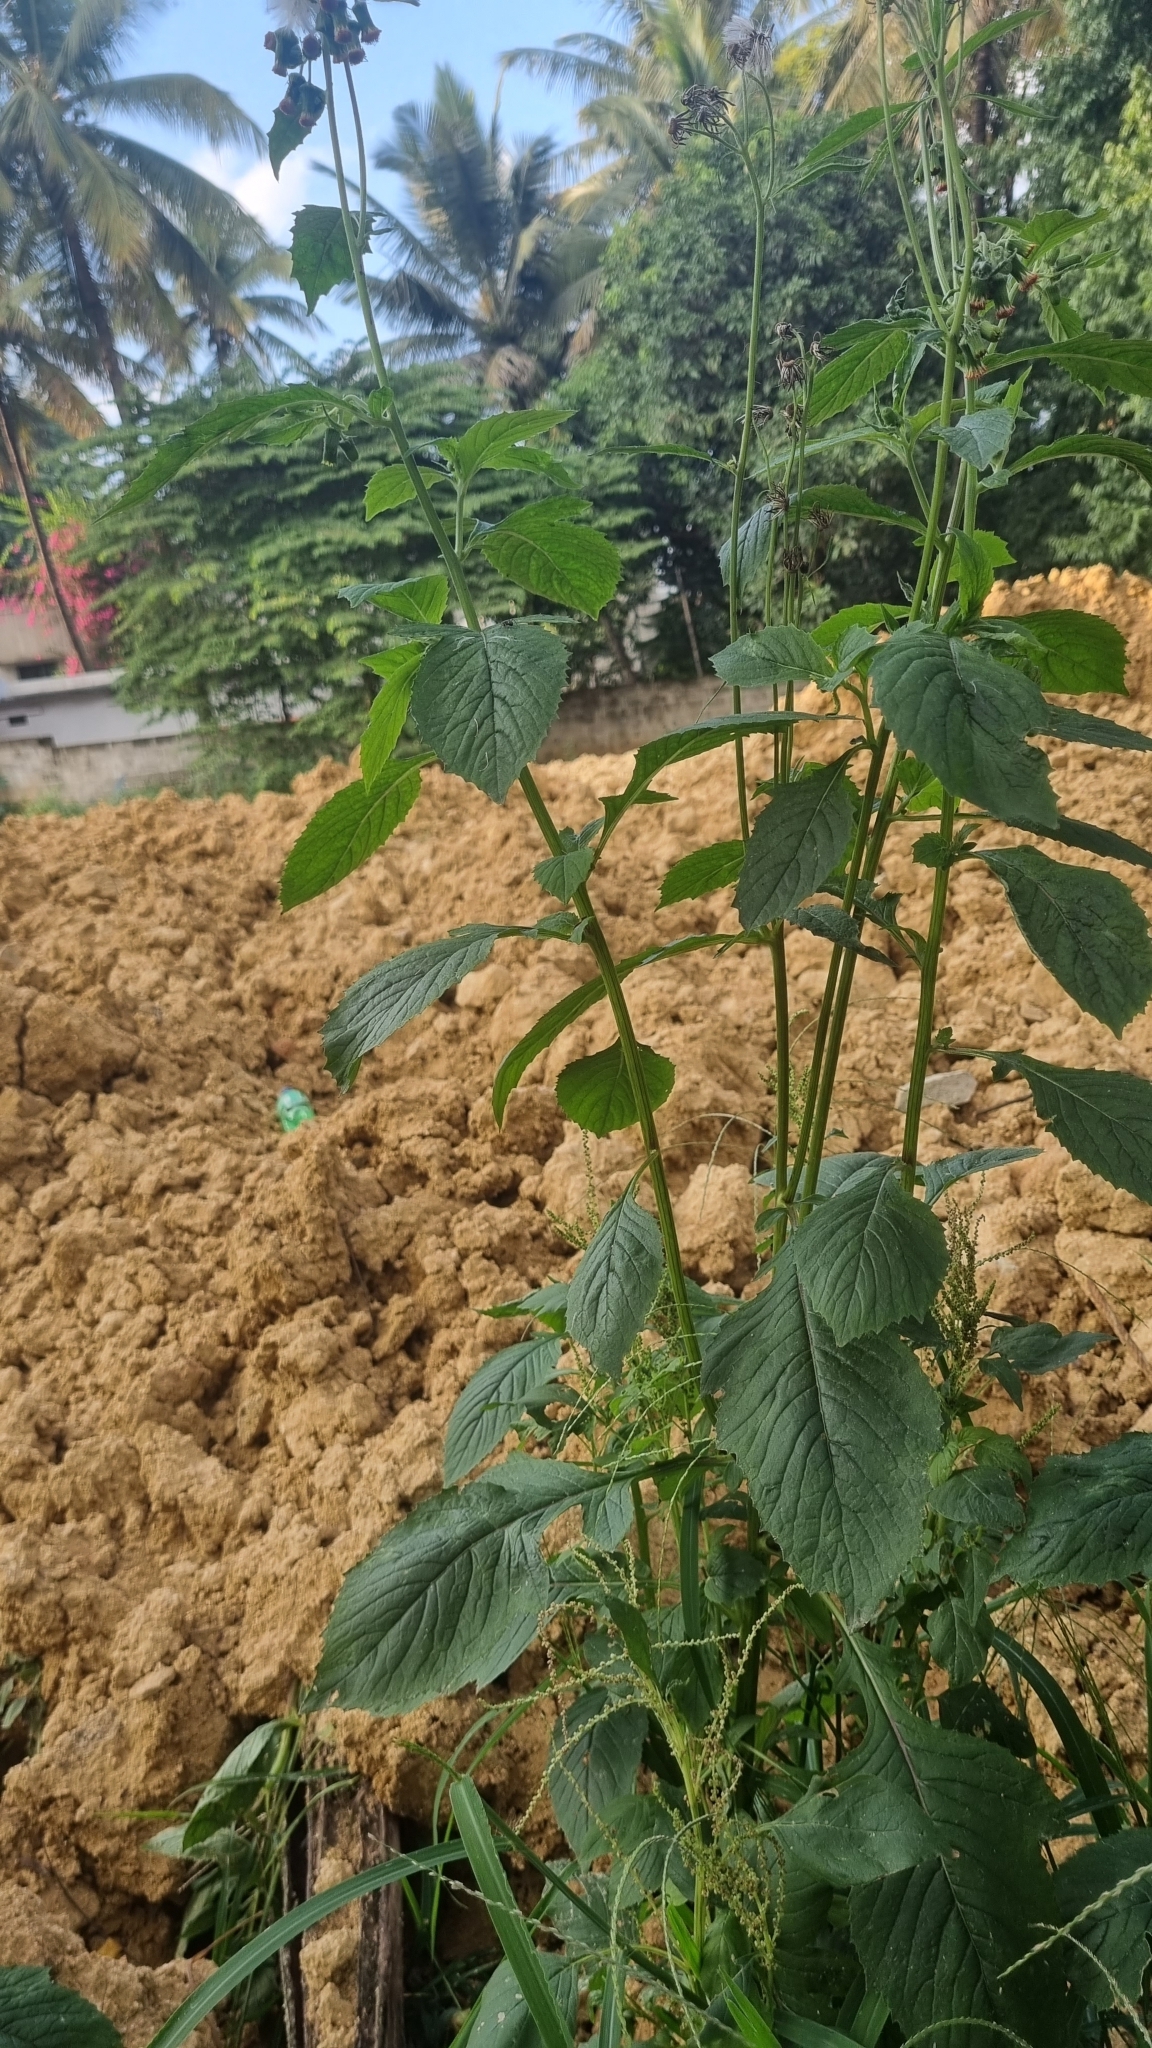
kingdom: Plantae
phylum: Tracheophyta
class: Magnoliopsida
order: Asterales
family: Asteraceae
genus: Crassocephalum
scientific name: Crassocephalum crepidioides
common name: Redflower ragleaf
